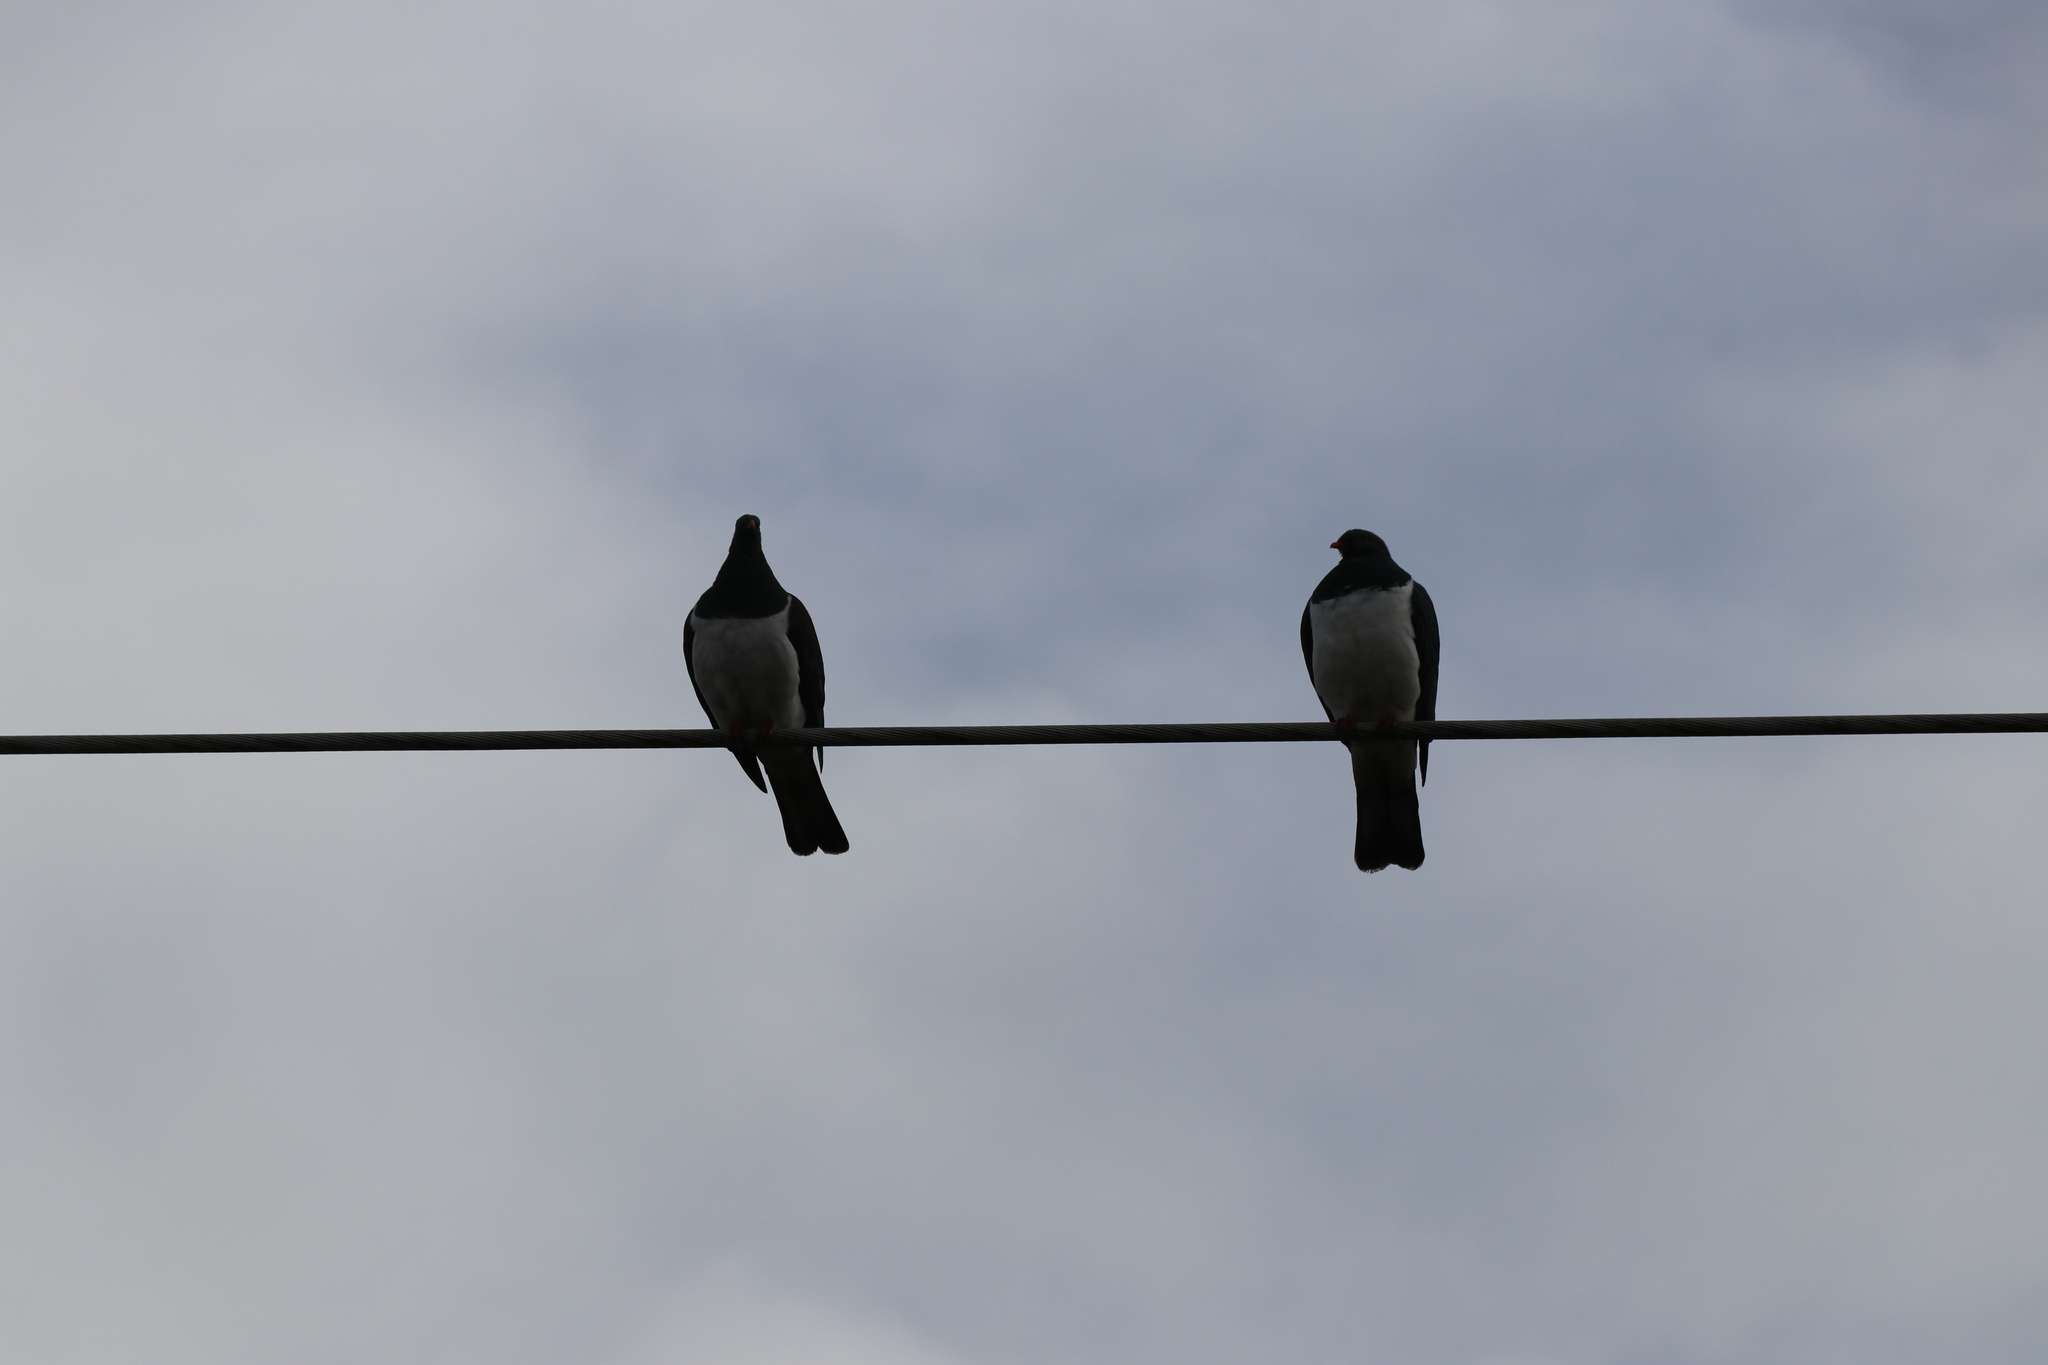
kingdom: Animalia
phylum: Chordata
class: Aves
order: Columbiformes
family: Columbidae
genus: Hemiphaga
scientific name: Hemiphaga novaeseelandiae
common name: New zealand pigeon
